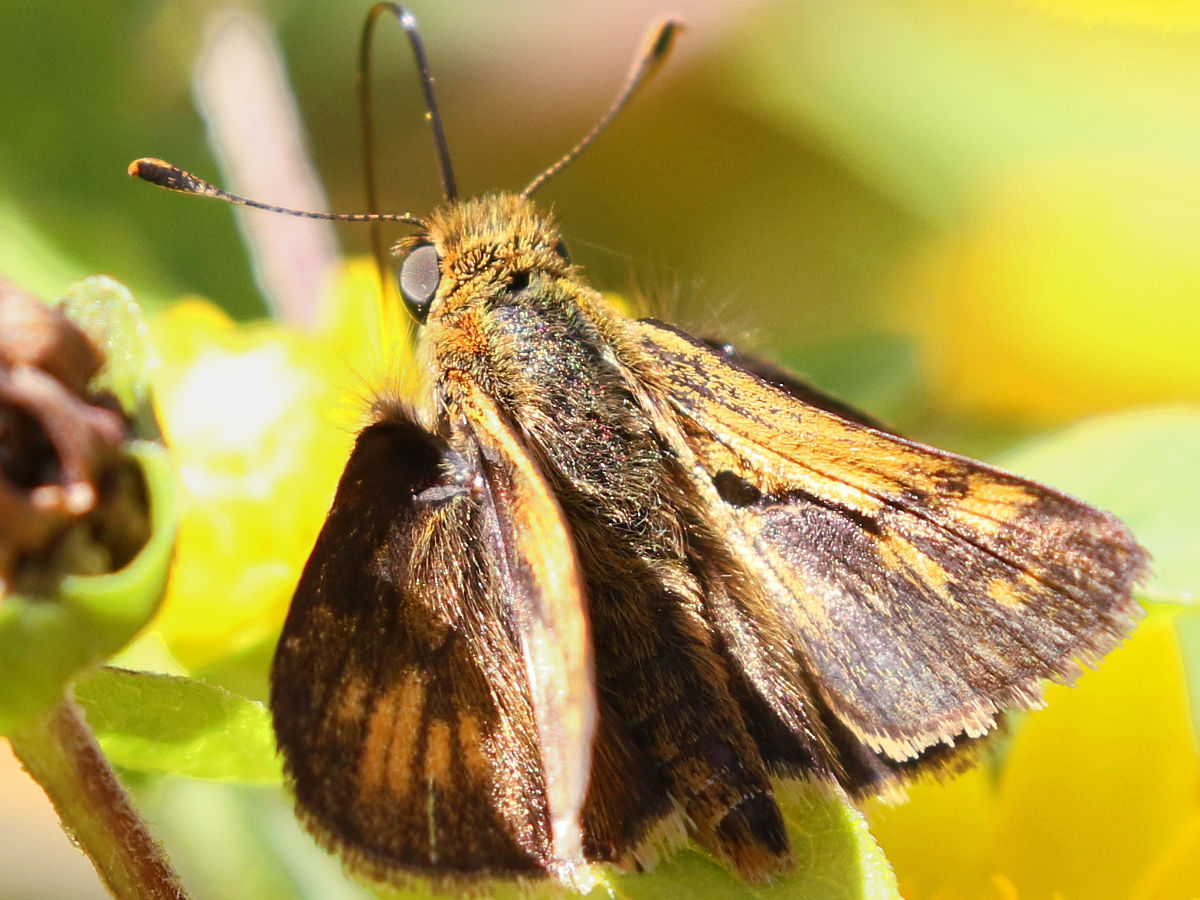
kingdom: Animalia
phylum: Arthropoda
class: Insecta
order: Lepidoptera
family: Hesperiidae
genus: Polites
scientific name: Polites coras
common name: Peck's skipper
